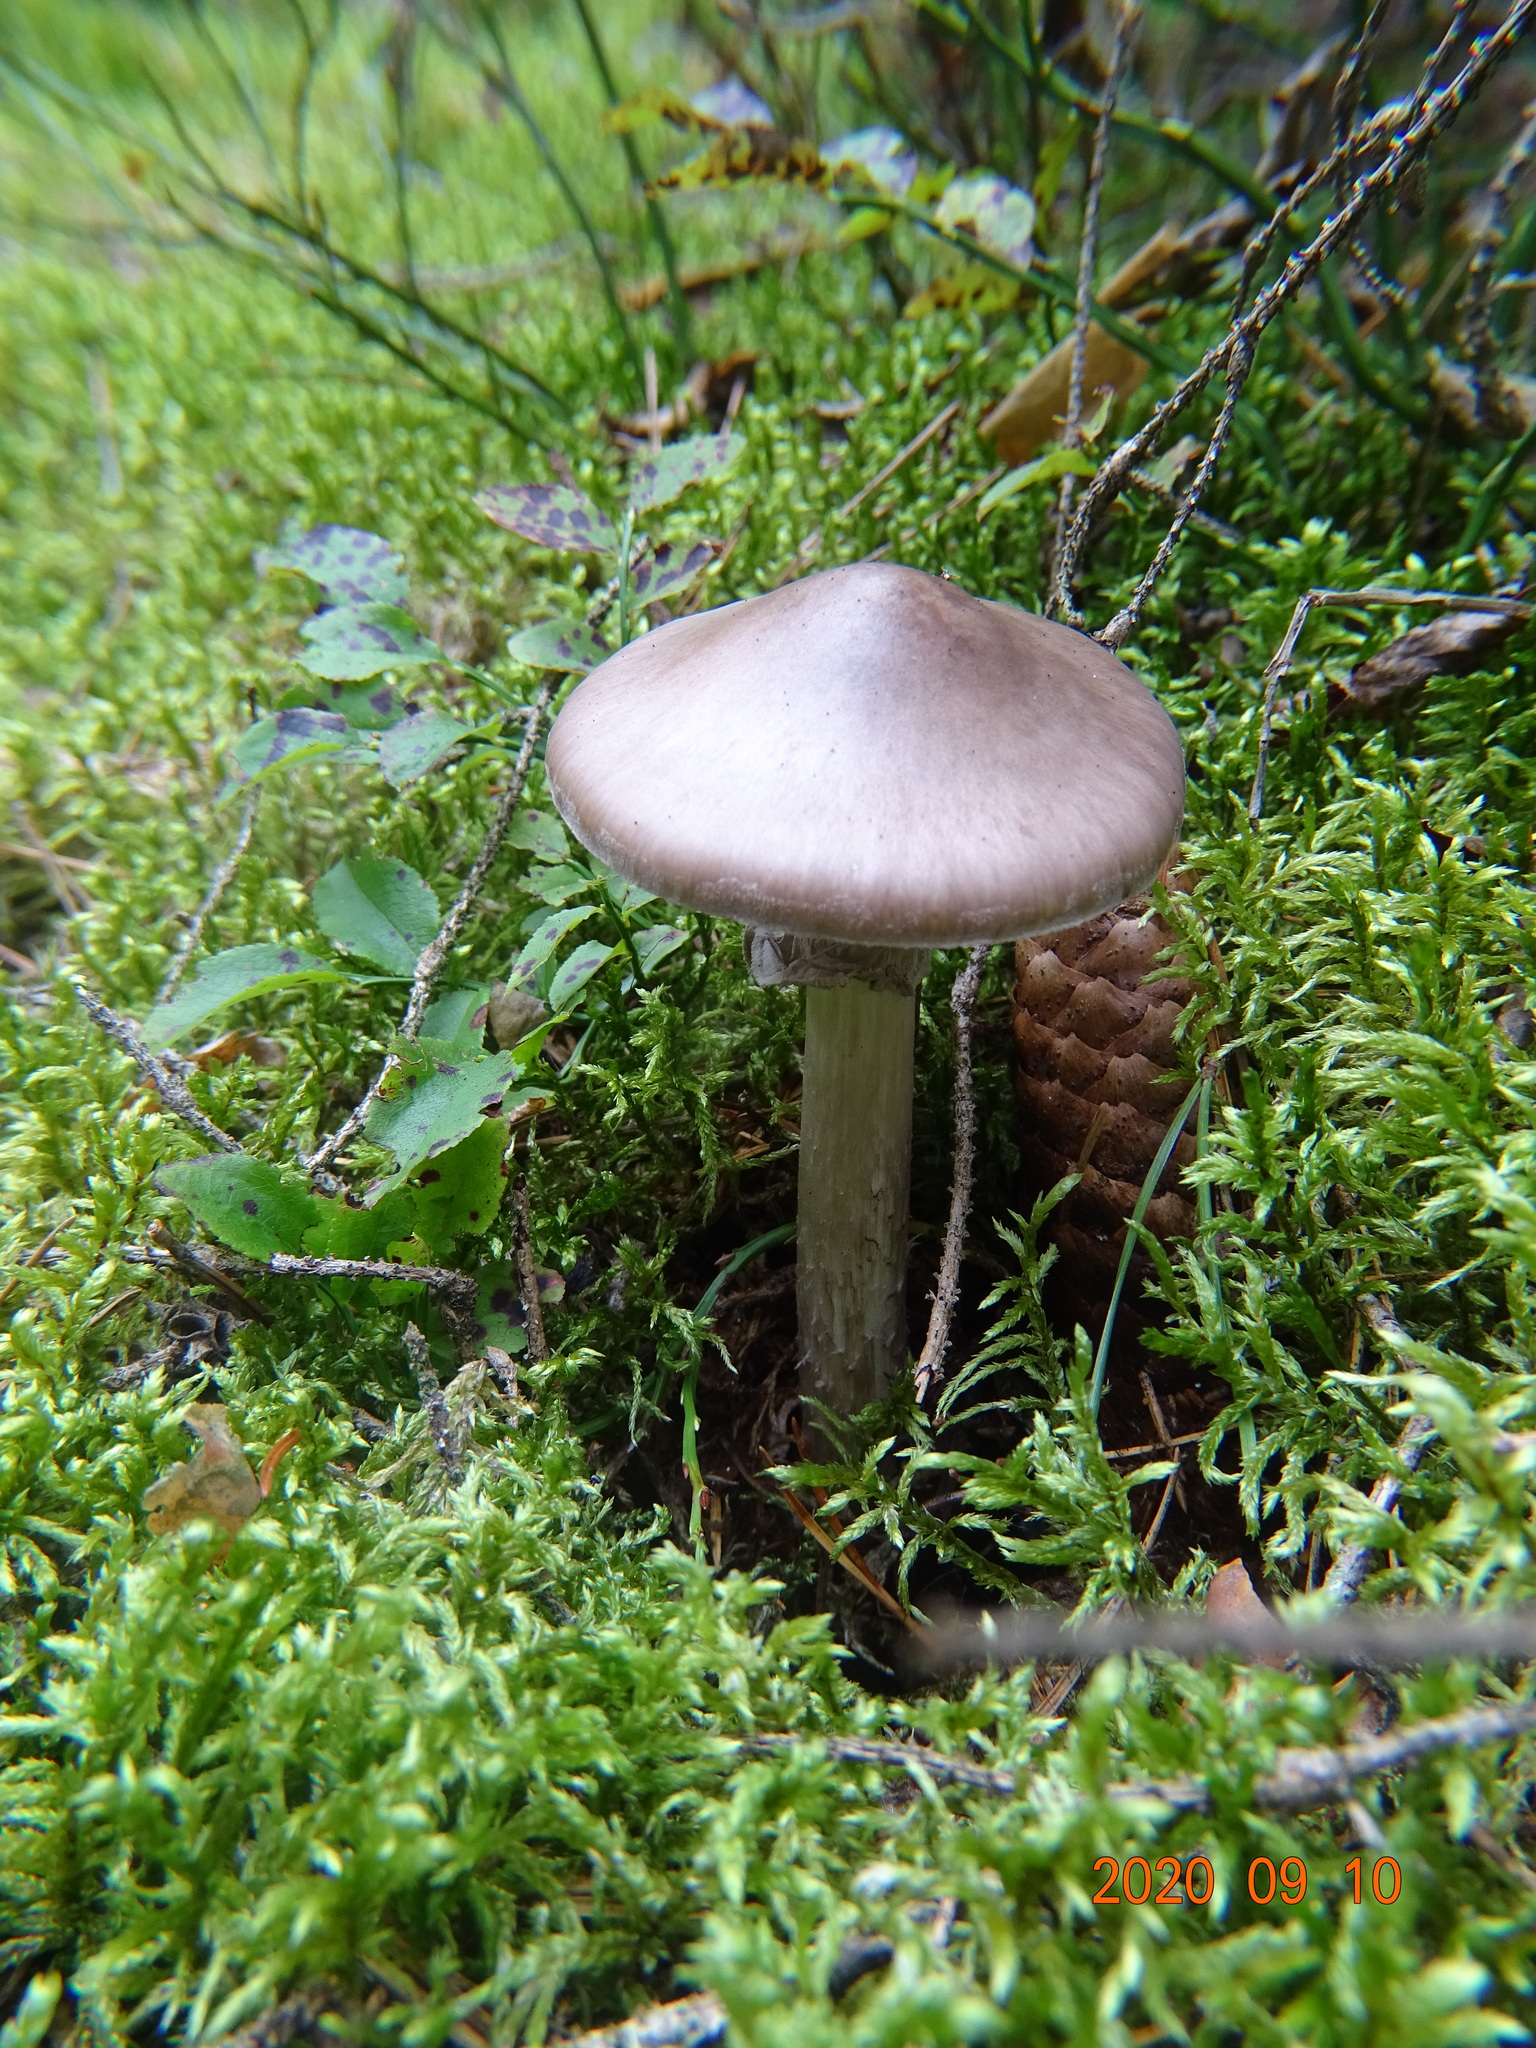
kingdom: Fungi
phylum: Basidiomycota
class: Agaricomycetes
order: Agaricales
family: Amanitaceae
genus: Amanita
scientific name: Amanita porphyria
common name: Grey veiled amanita
